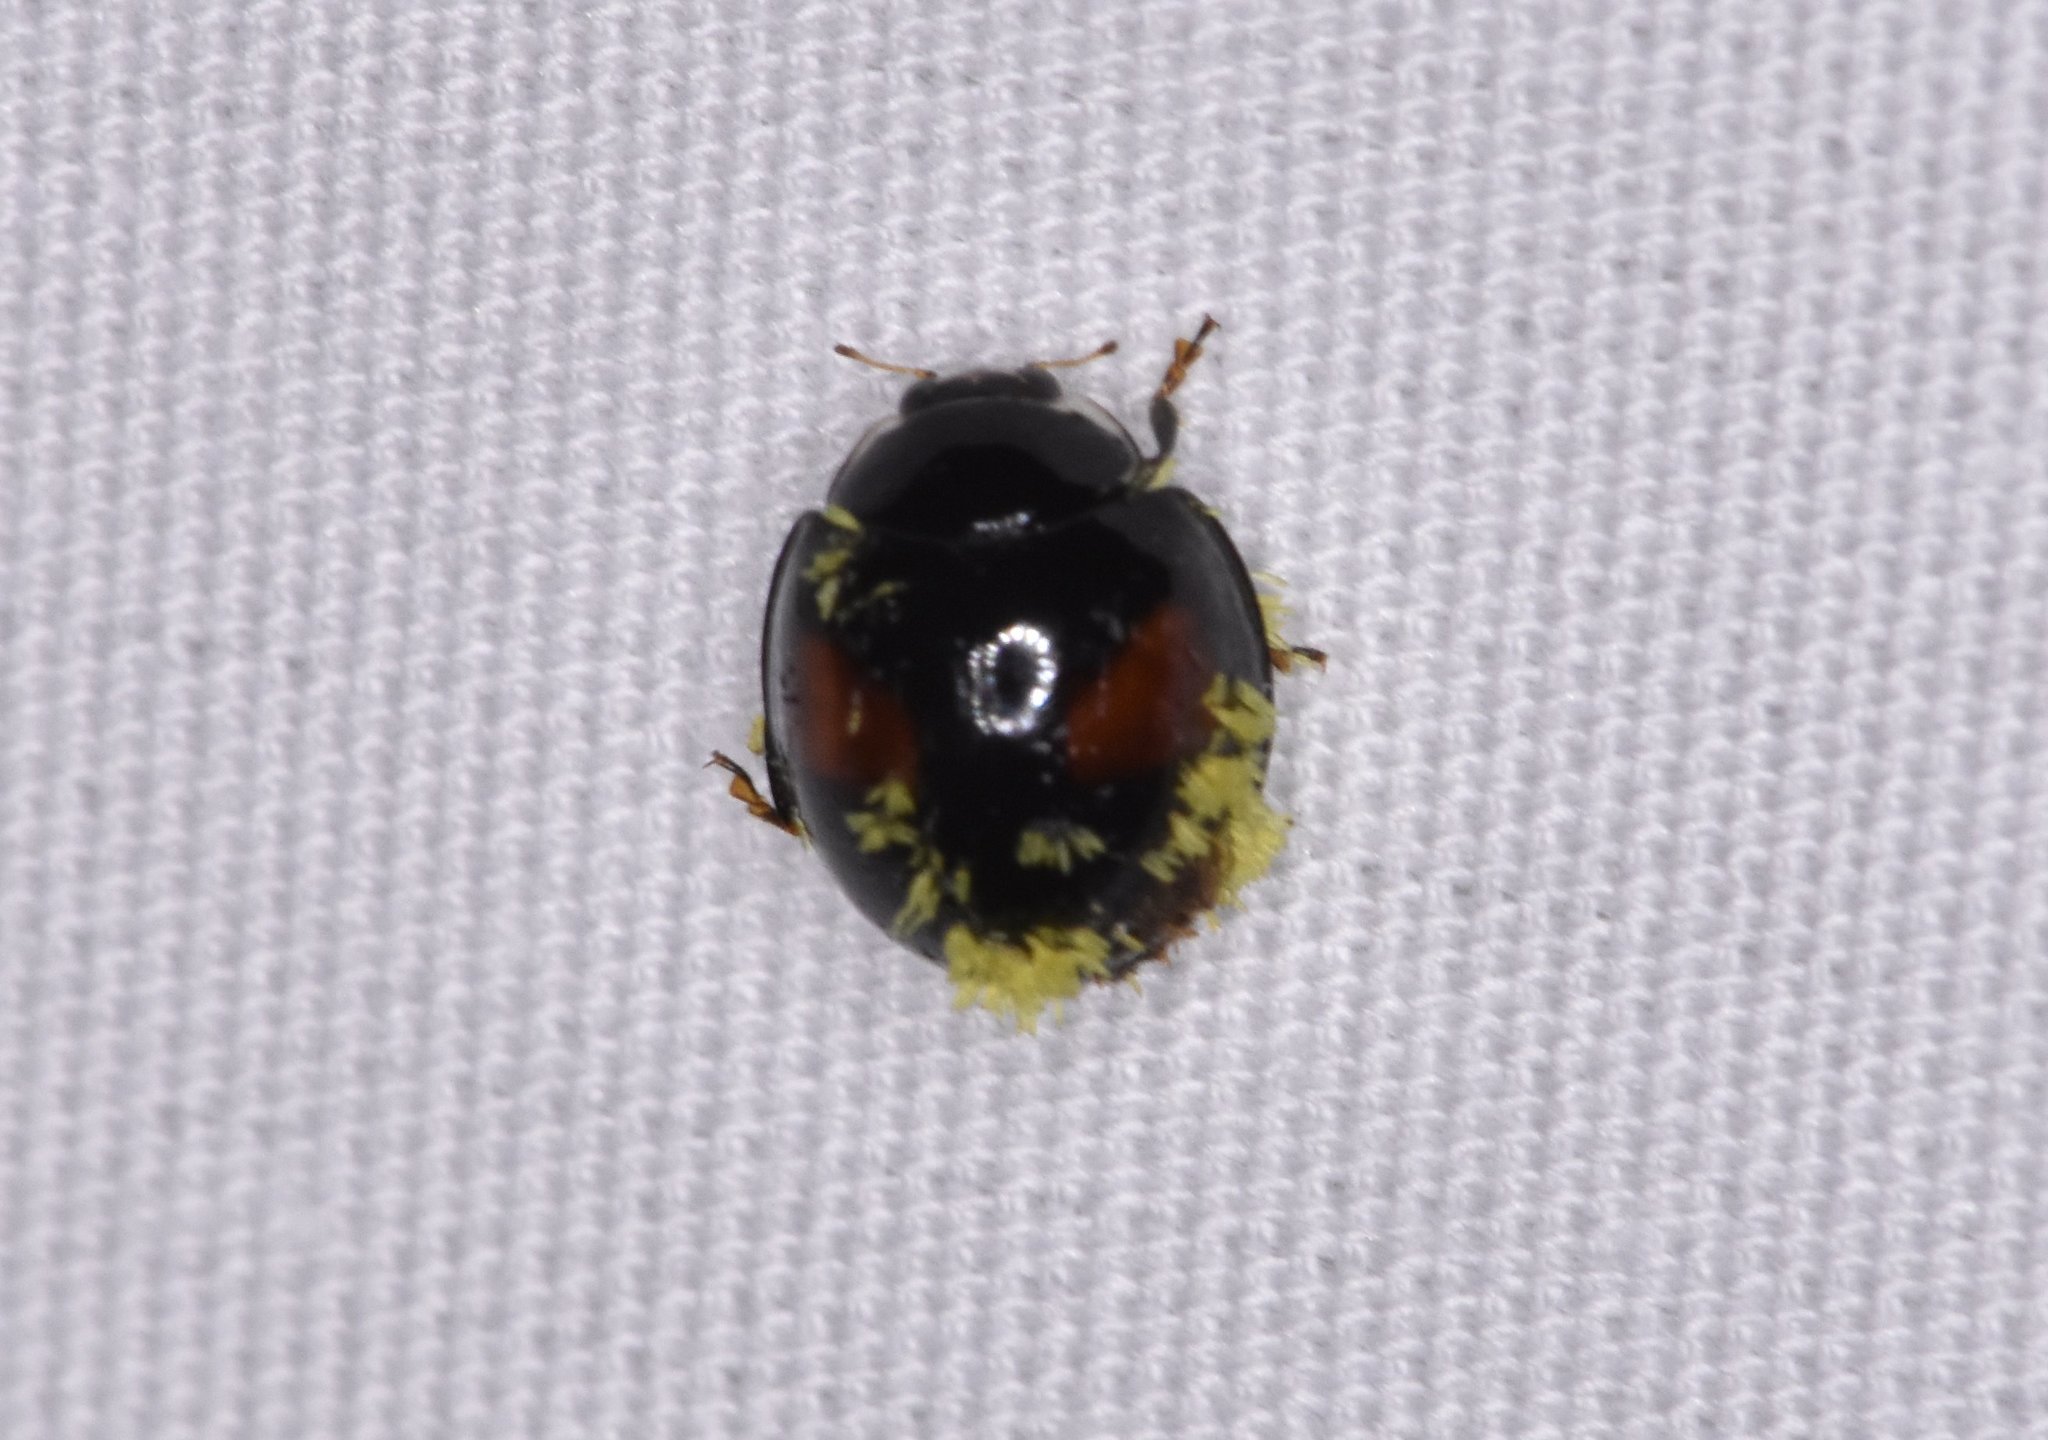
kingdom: Animalia
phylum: Arthropoda
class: Insecta
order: Coleoptera
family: Coccinellidae
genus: Olla
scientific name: Olla v-nigrum
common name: Ashy gray lady beetle
